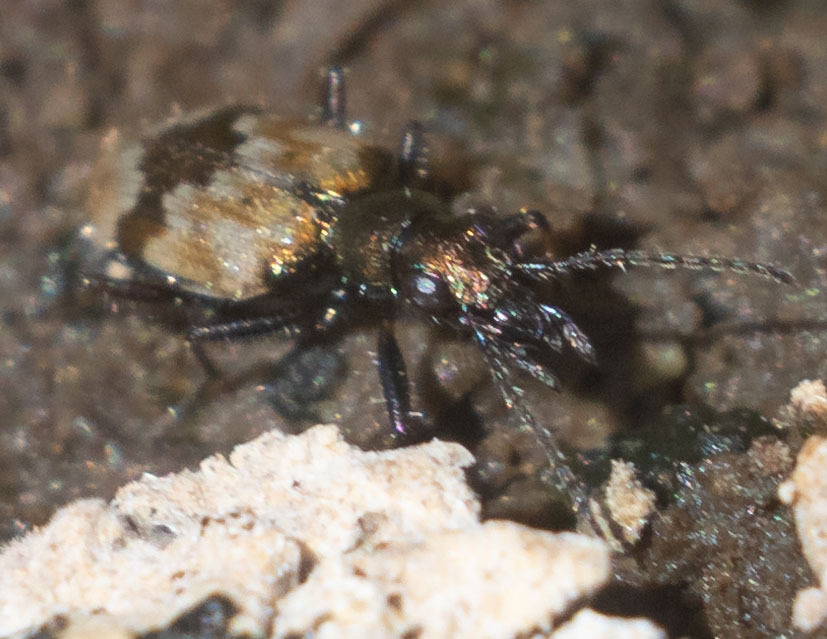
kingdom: Animalia
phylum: Arthropoda
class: Insecta
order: Coleoptera
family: Carabidae
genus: Lachnophorus
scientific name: Lachnophorus elegantulus
